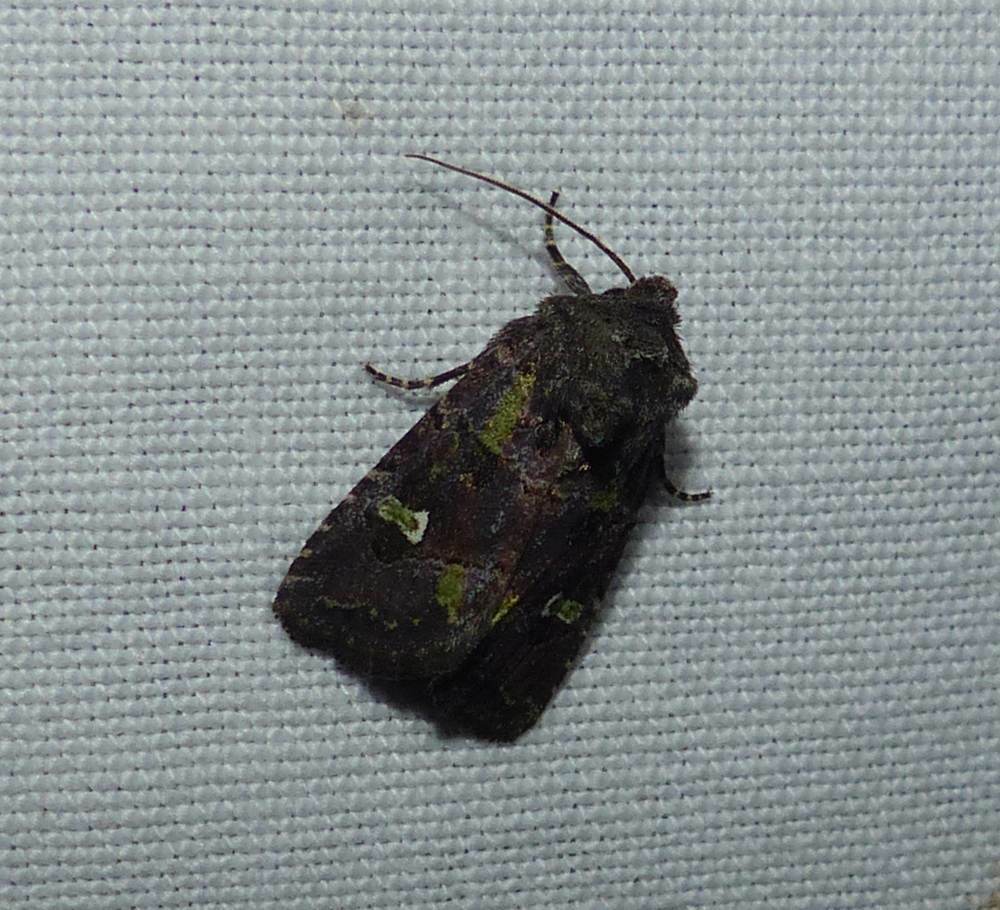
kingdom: Animalia
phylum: Arthropoda
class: Insecta
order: Lepidoptera
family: Noctuidae
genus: Lacinipolia
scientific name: Lacinipolia renigera
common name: Kidney-spotted minor
